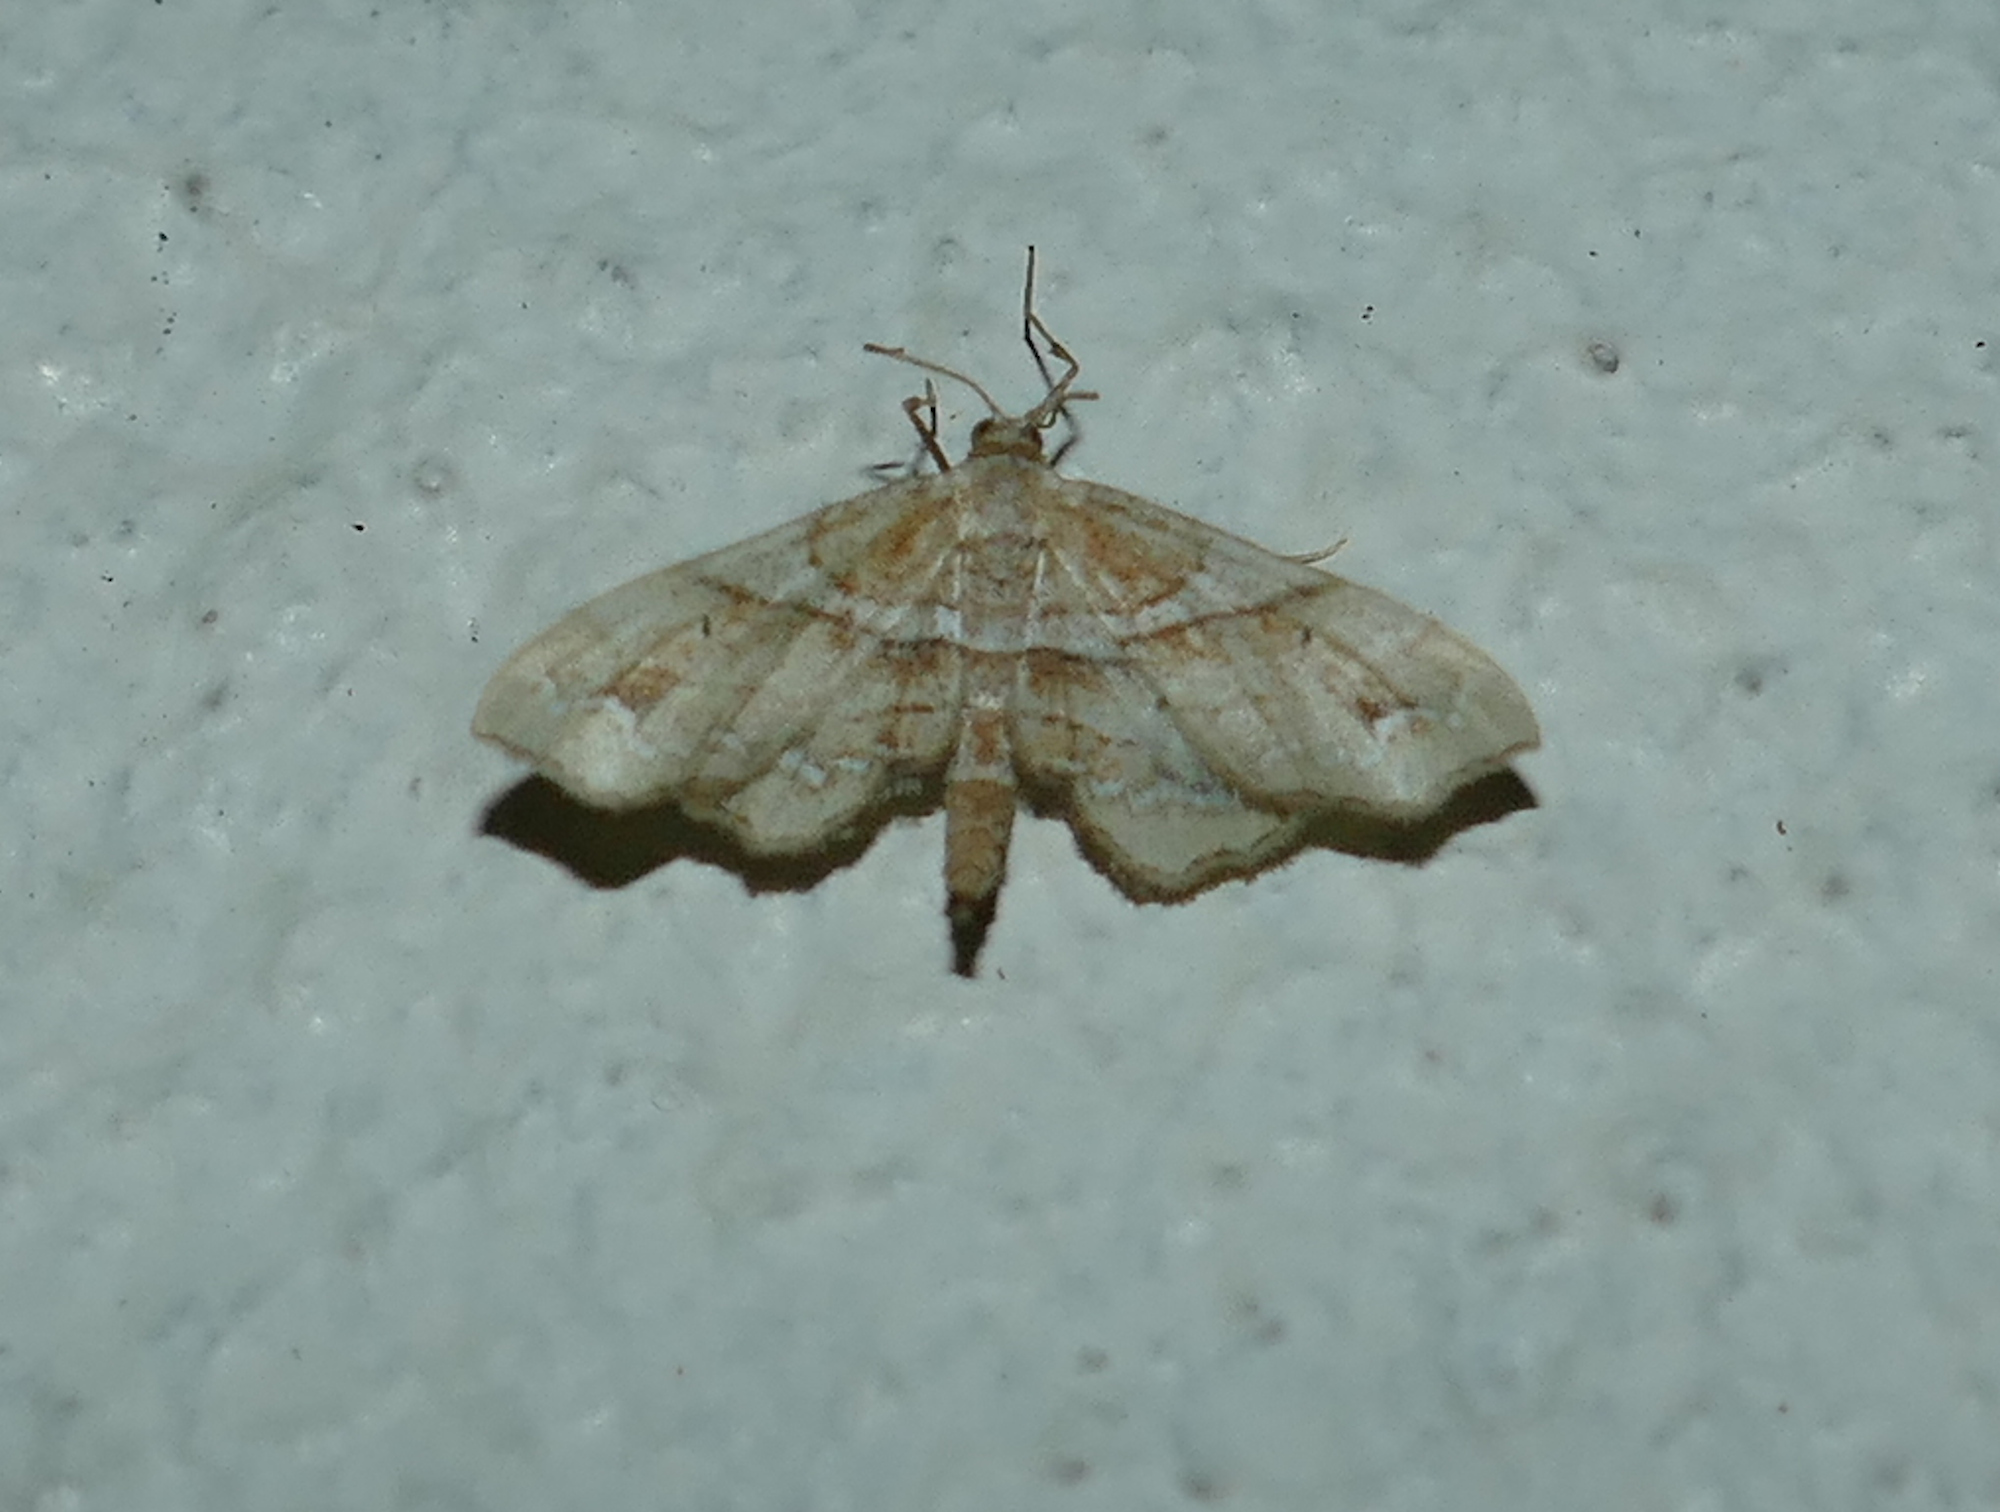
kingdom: Animalia
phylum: Arthropoda
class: Insecta
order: Lepidoptera
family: Geometridae
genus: Odontoptila
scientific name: Odontoptila obrimo
